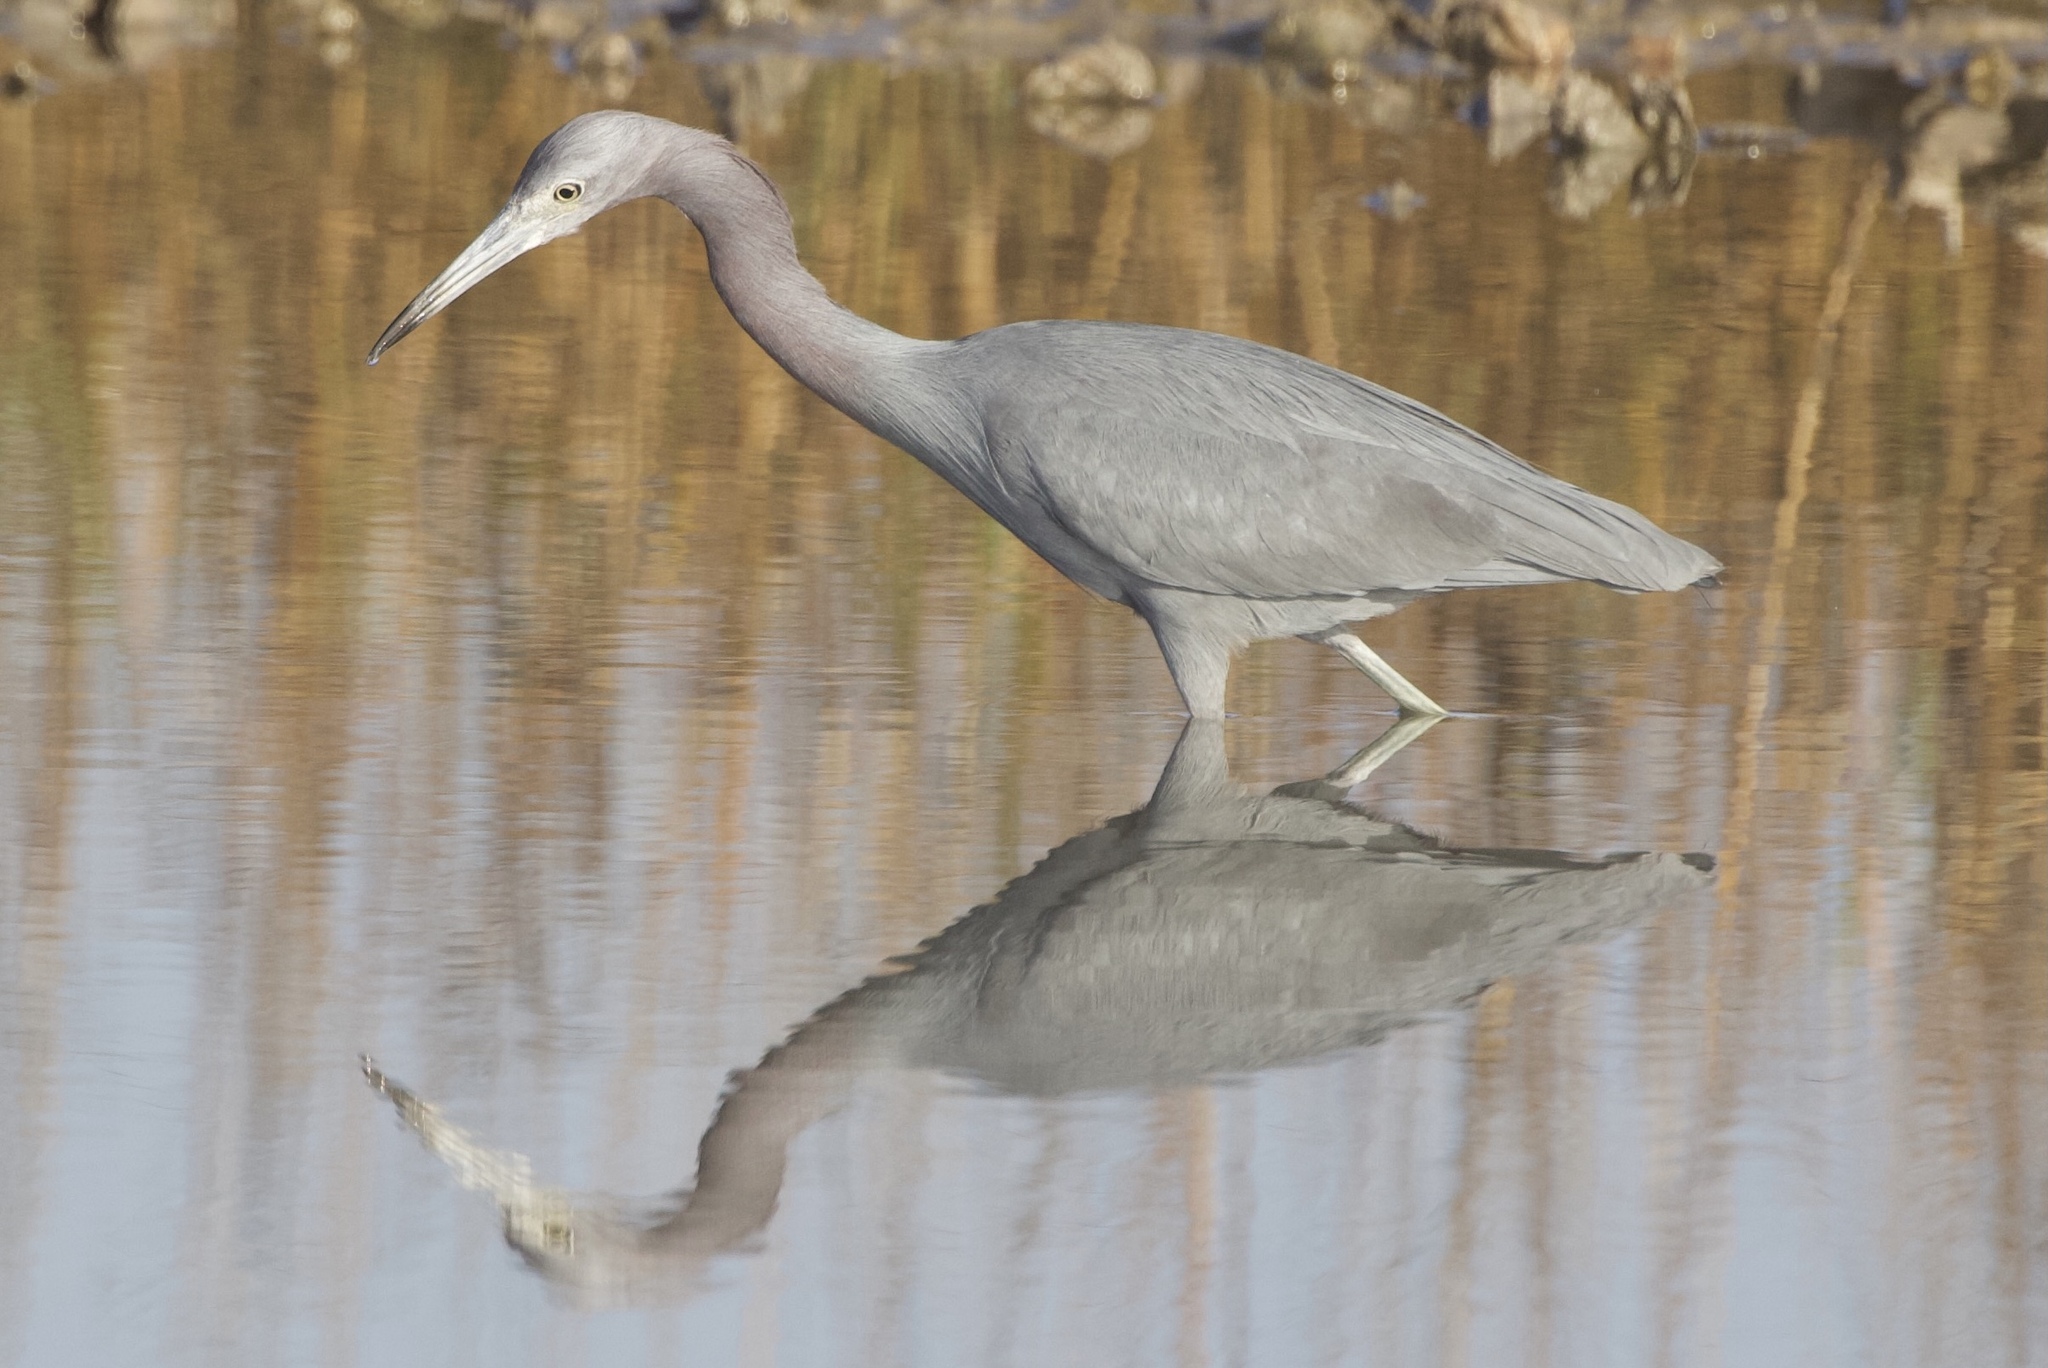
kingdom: Animalia
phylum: Chordata
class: Aves
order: Pelecaniformes
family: Ardeidae
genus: Egretta
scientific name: Egretta caerulea
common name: Little blue heron
